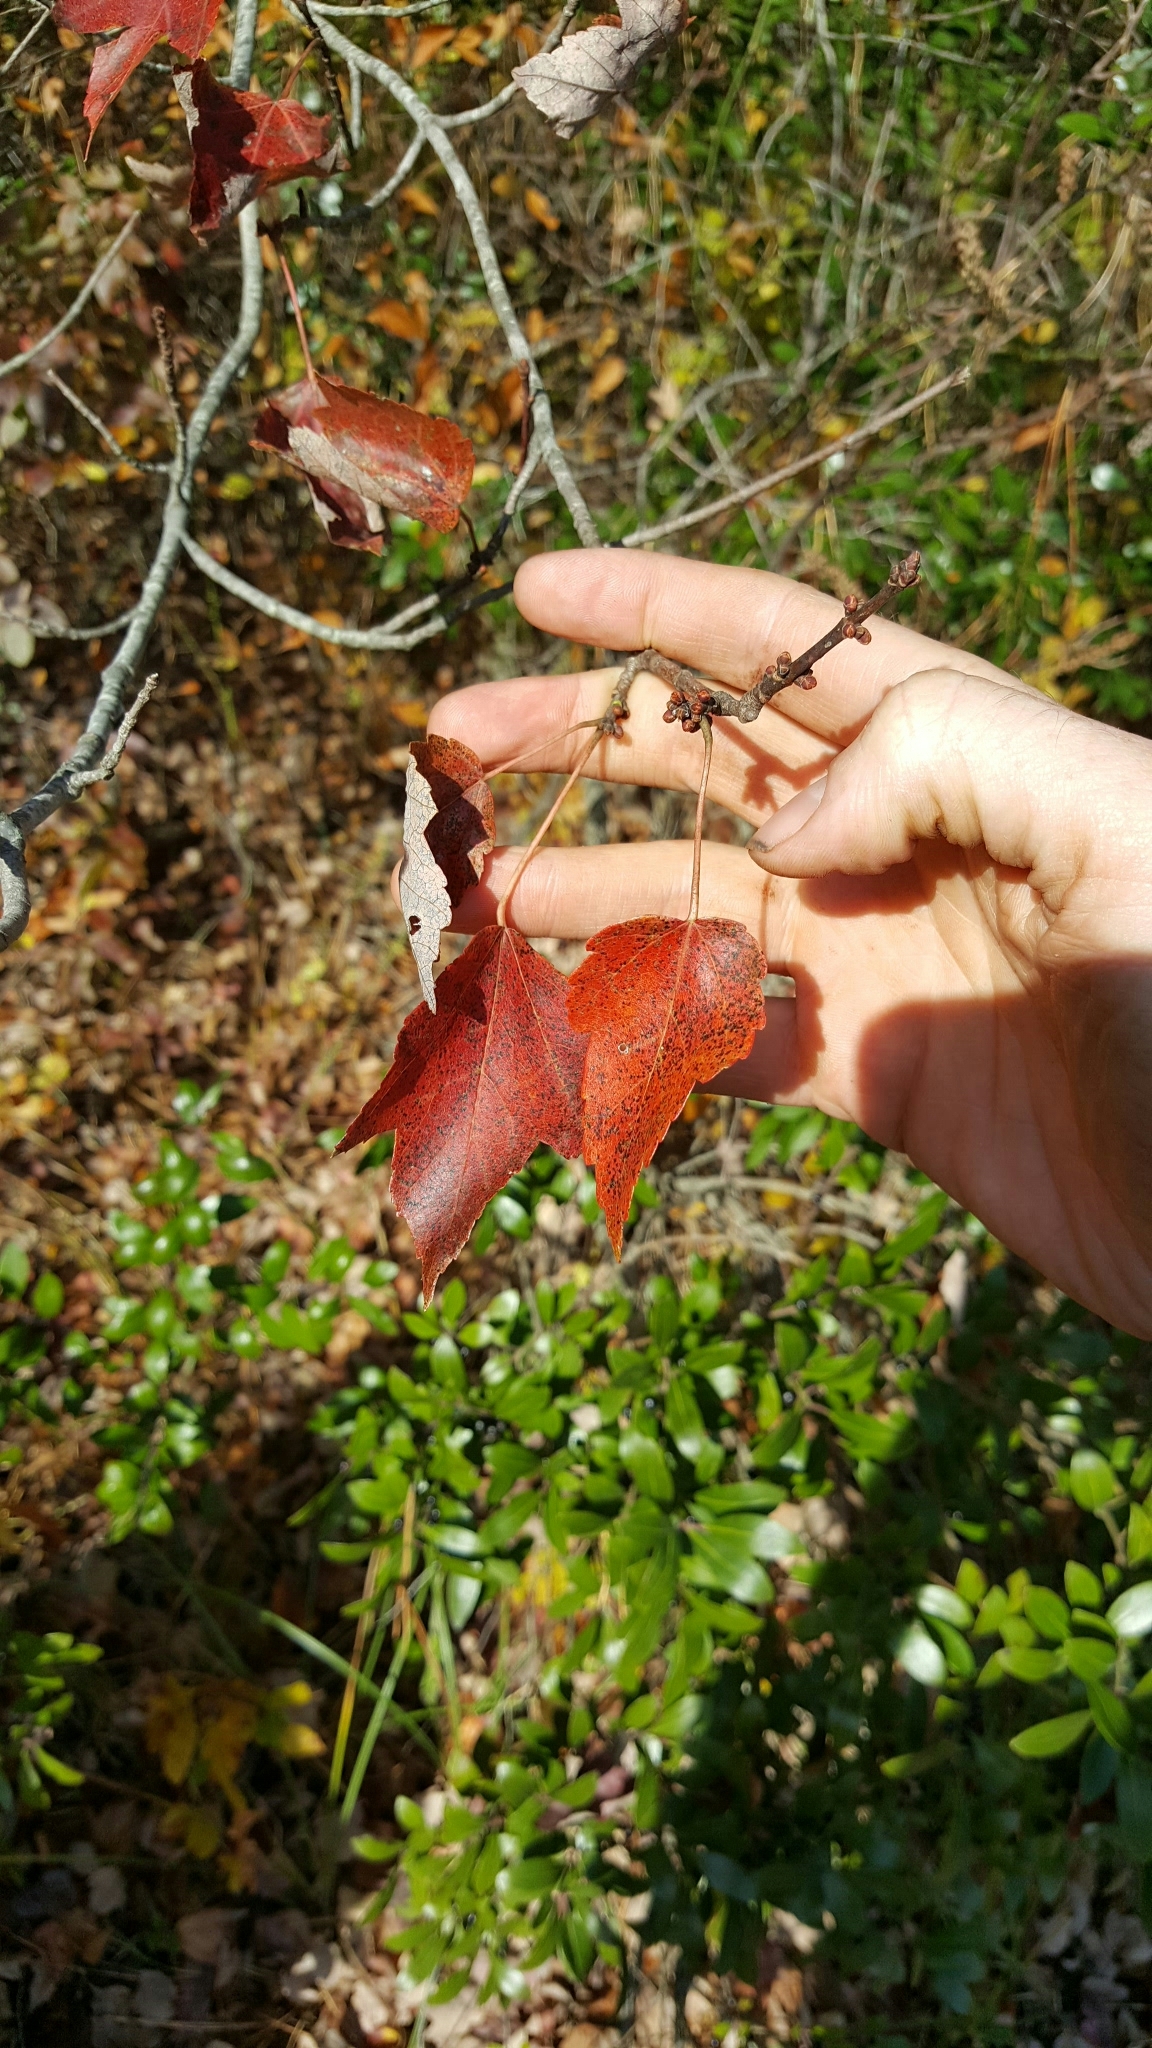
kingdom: Plantae
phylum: Tracheophyta
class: Magnoliopsida
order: Sapindales
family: Sapindaceae
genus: Acer
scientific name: Acer rubrum
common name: Red maple
